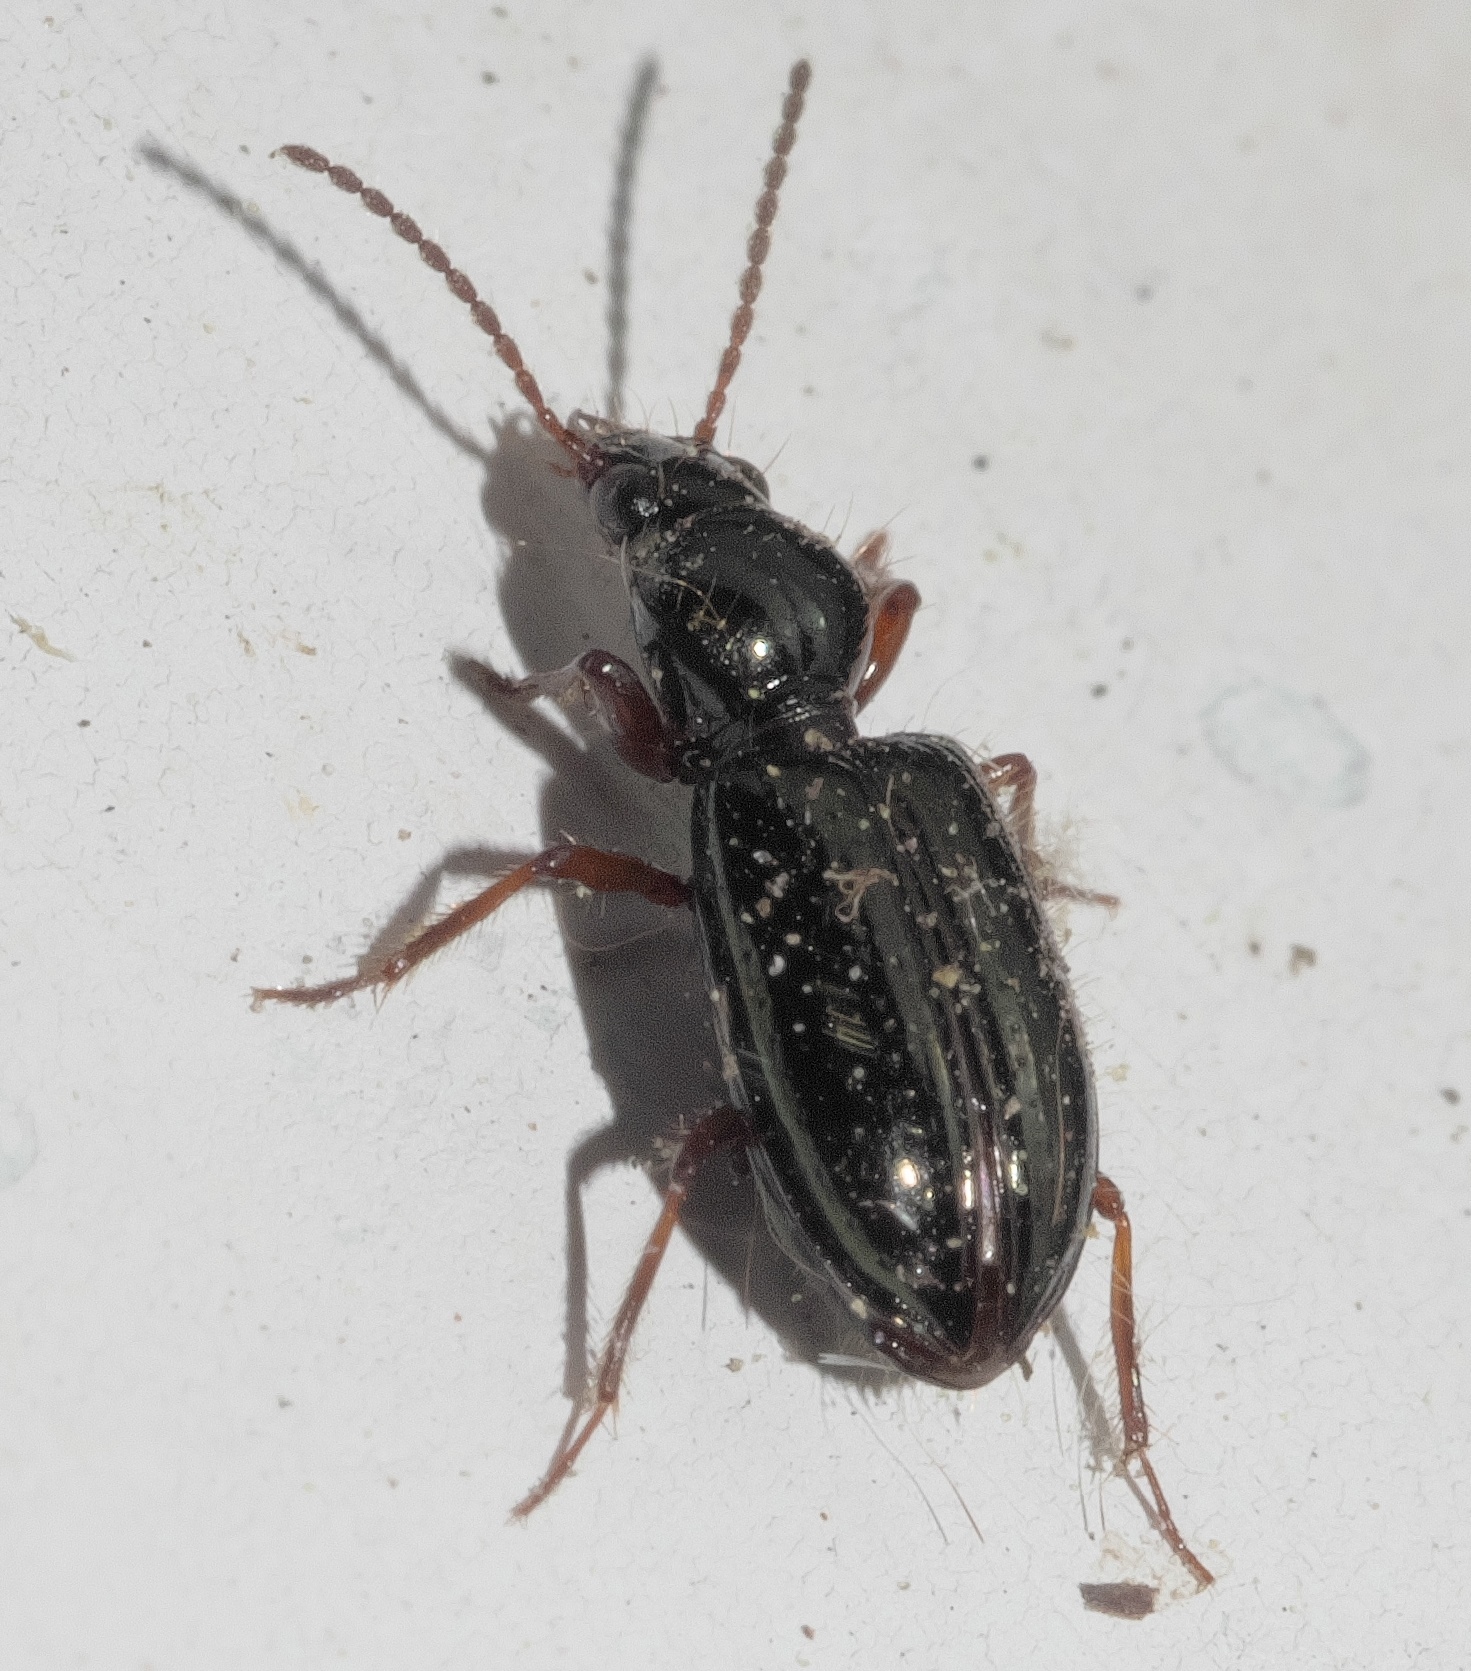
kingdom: Animalia
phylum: Arthropoda
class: Insecta
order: Coleoptera
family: Carabidae
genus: Semiardistomis
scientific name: Semiardistomis viridis
